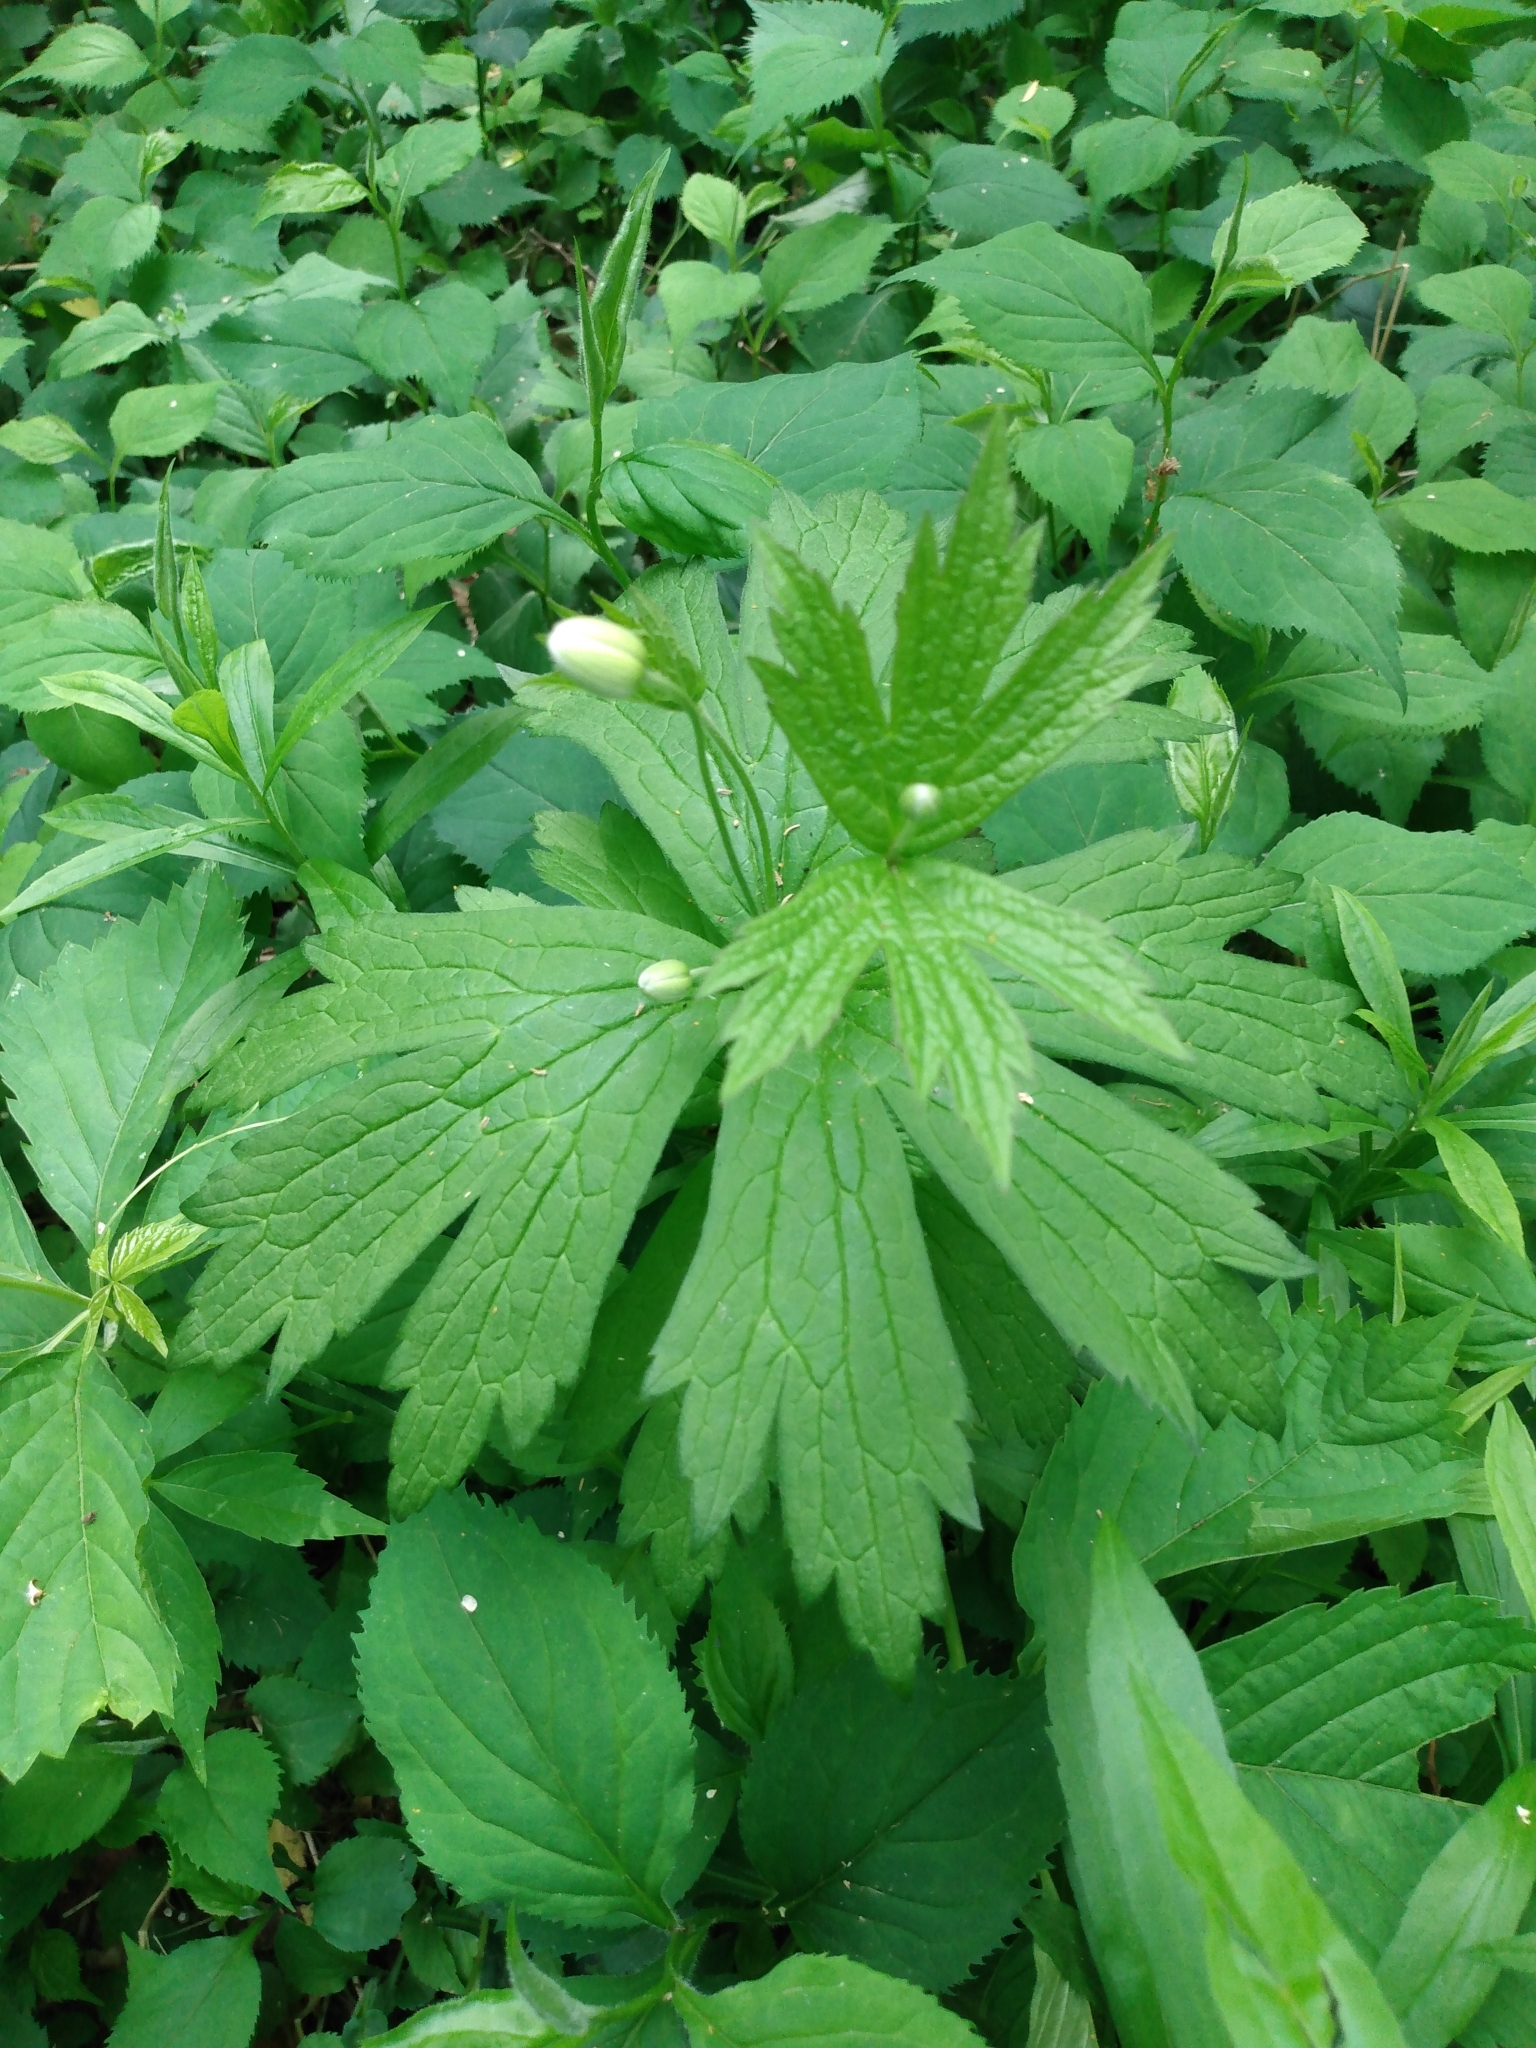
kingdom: Plantae
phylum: Tracheophyta
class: Magnoliopsida
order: Ranunculales
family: Ranunculaceae
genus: Anemonastrum
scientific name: Anemonastrum canadense
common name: Canada anemone
